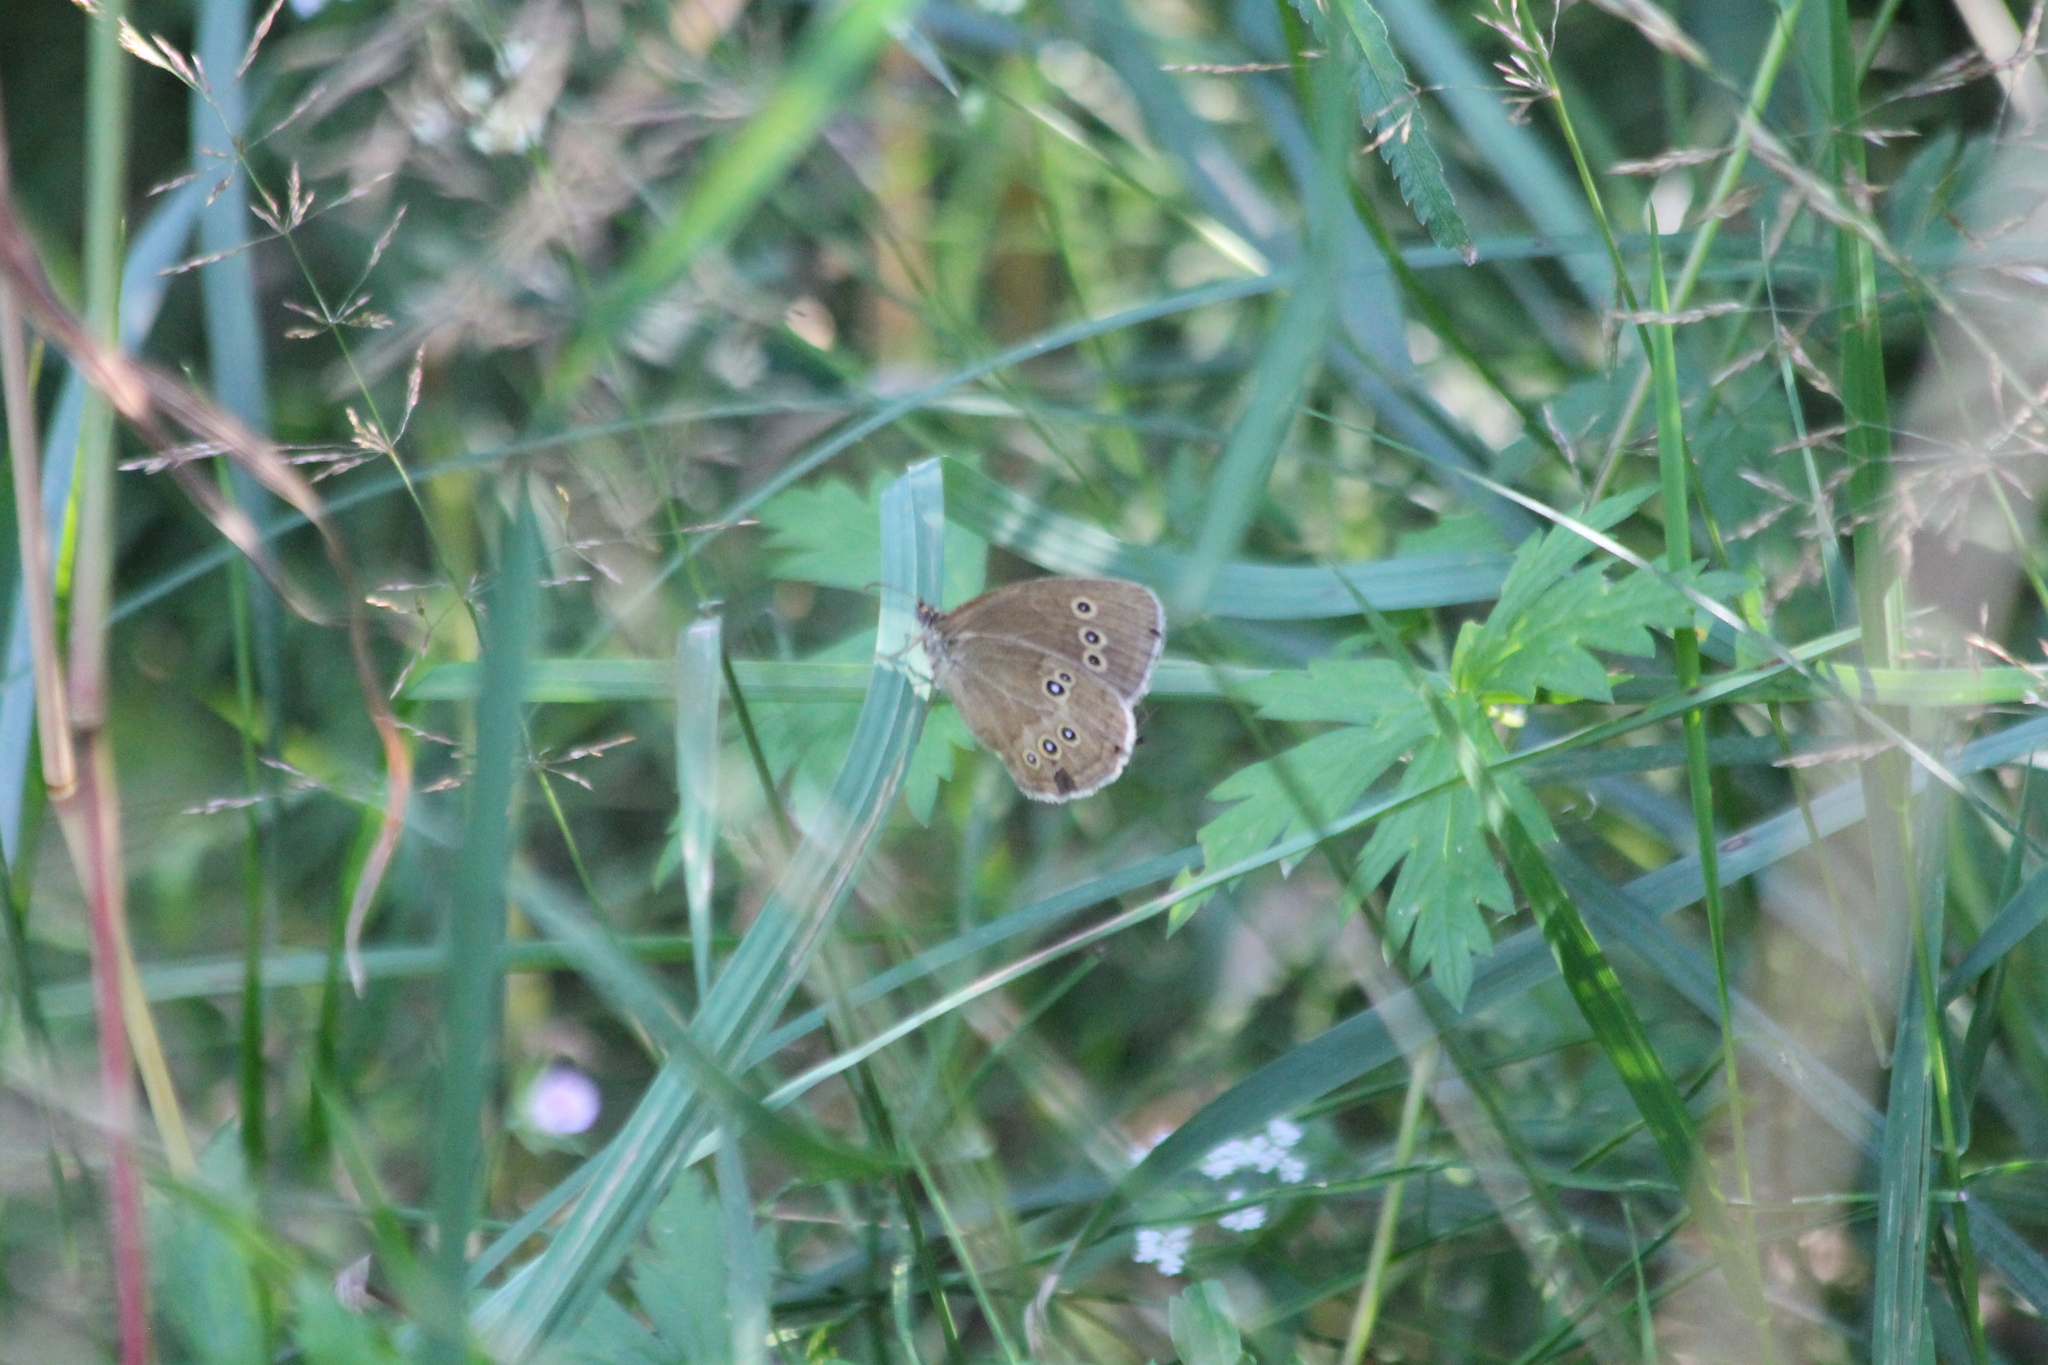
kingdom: Animalia
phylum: Arthropoda
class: Insecta
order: Lepidoptera
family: Nymphalidae
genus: Aphantopus
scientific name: Aphantopus hyperantus
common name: Ringlet
